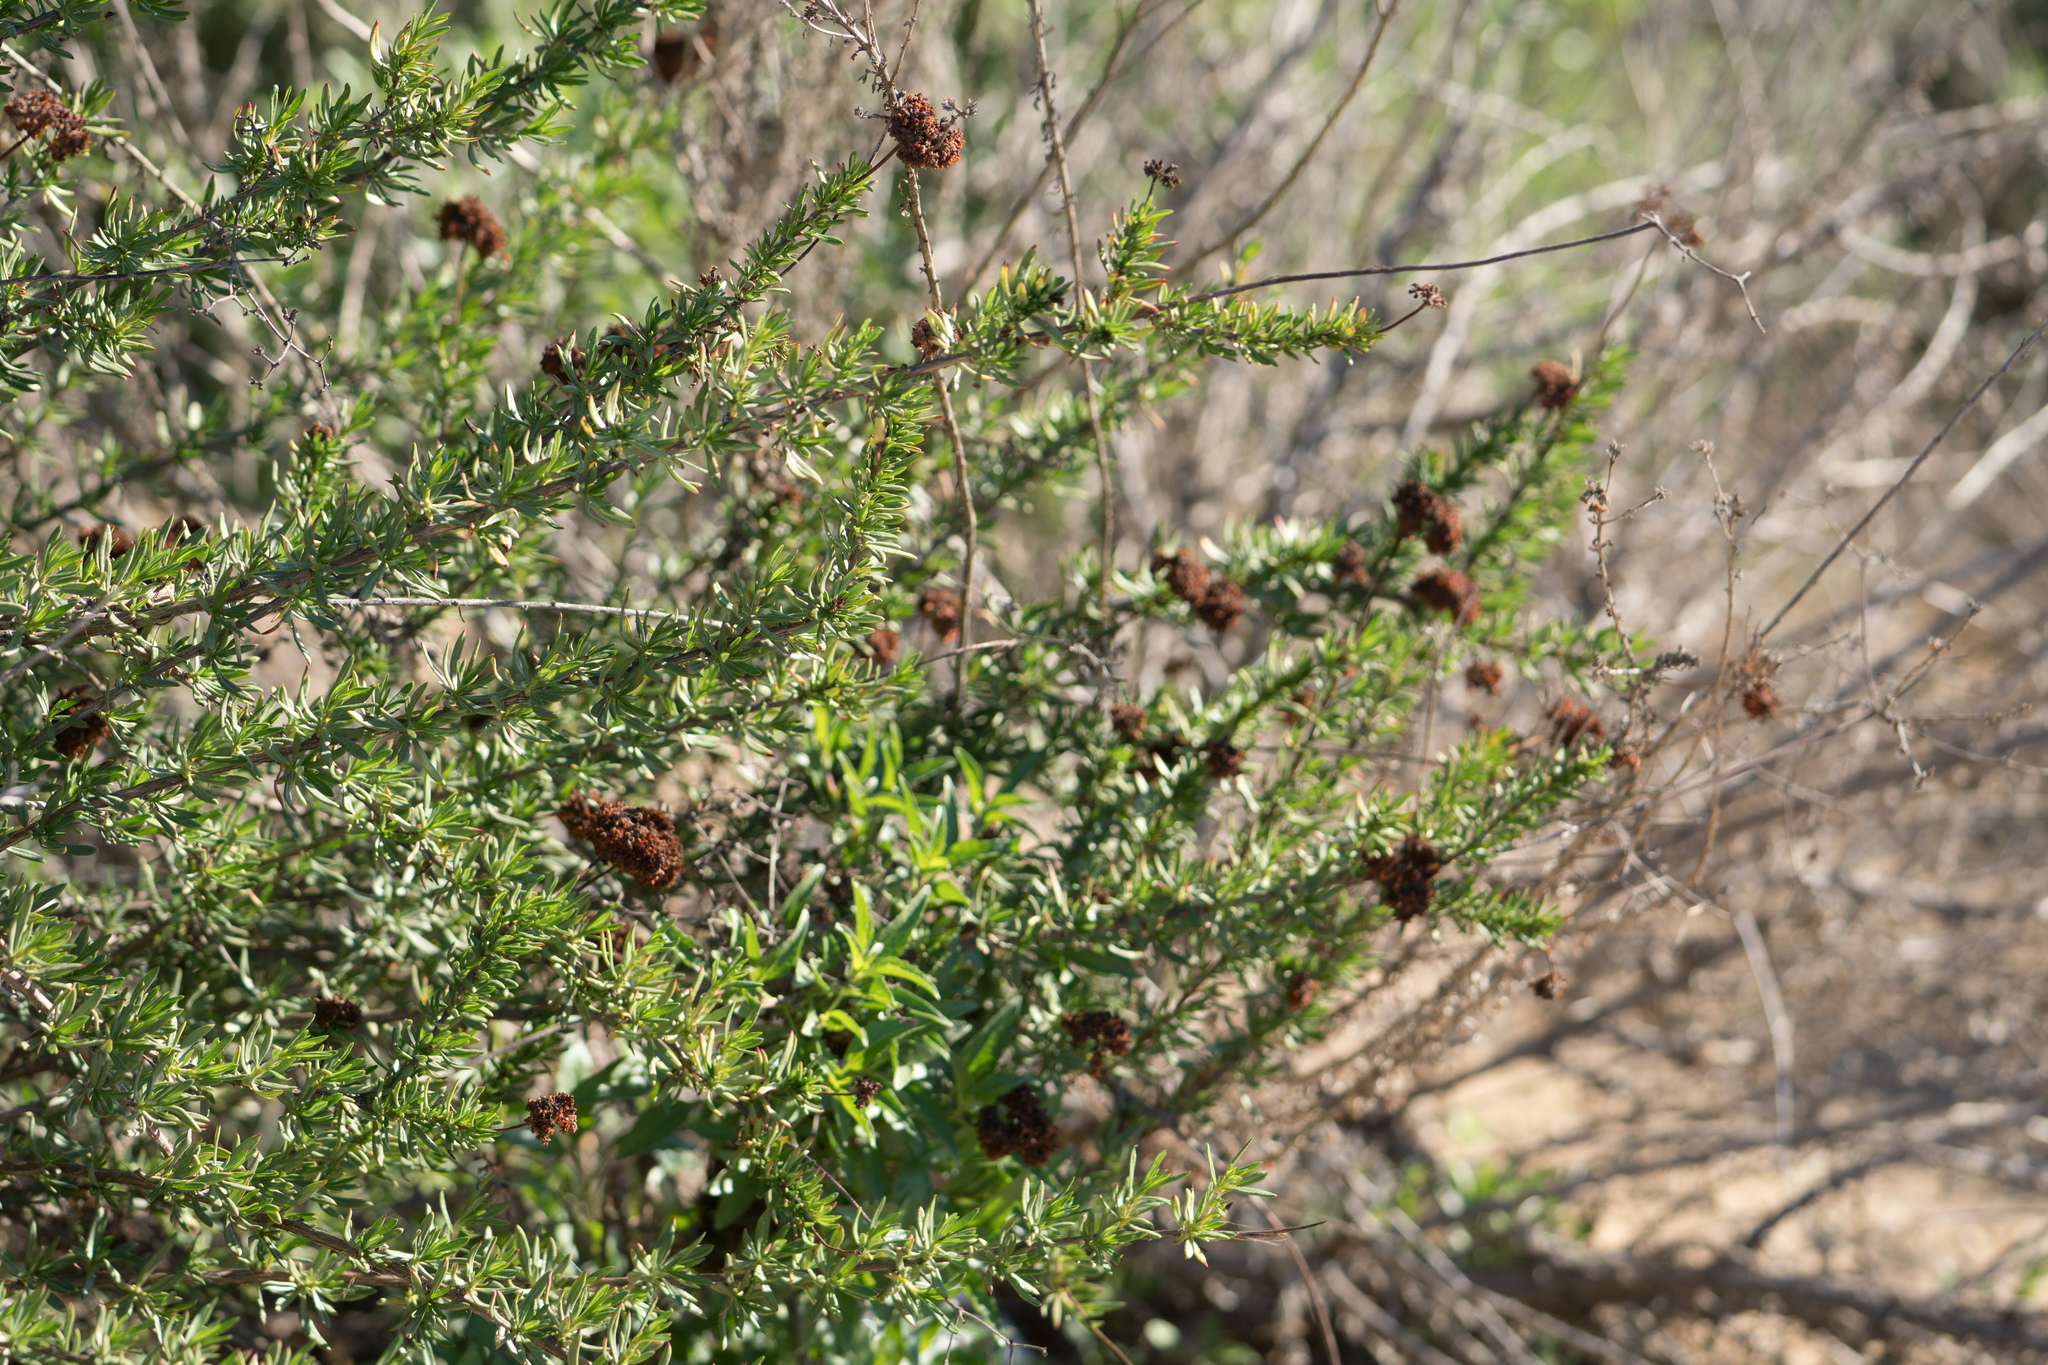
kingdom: Plantae
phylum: Tracheophyta
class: Magnoliopsida
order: Caryophyllales
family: Polygonaceae
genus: Eriogonum
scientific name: Eriogonum fasciculatum
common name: California wild buckwheat
